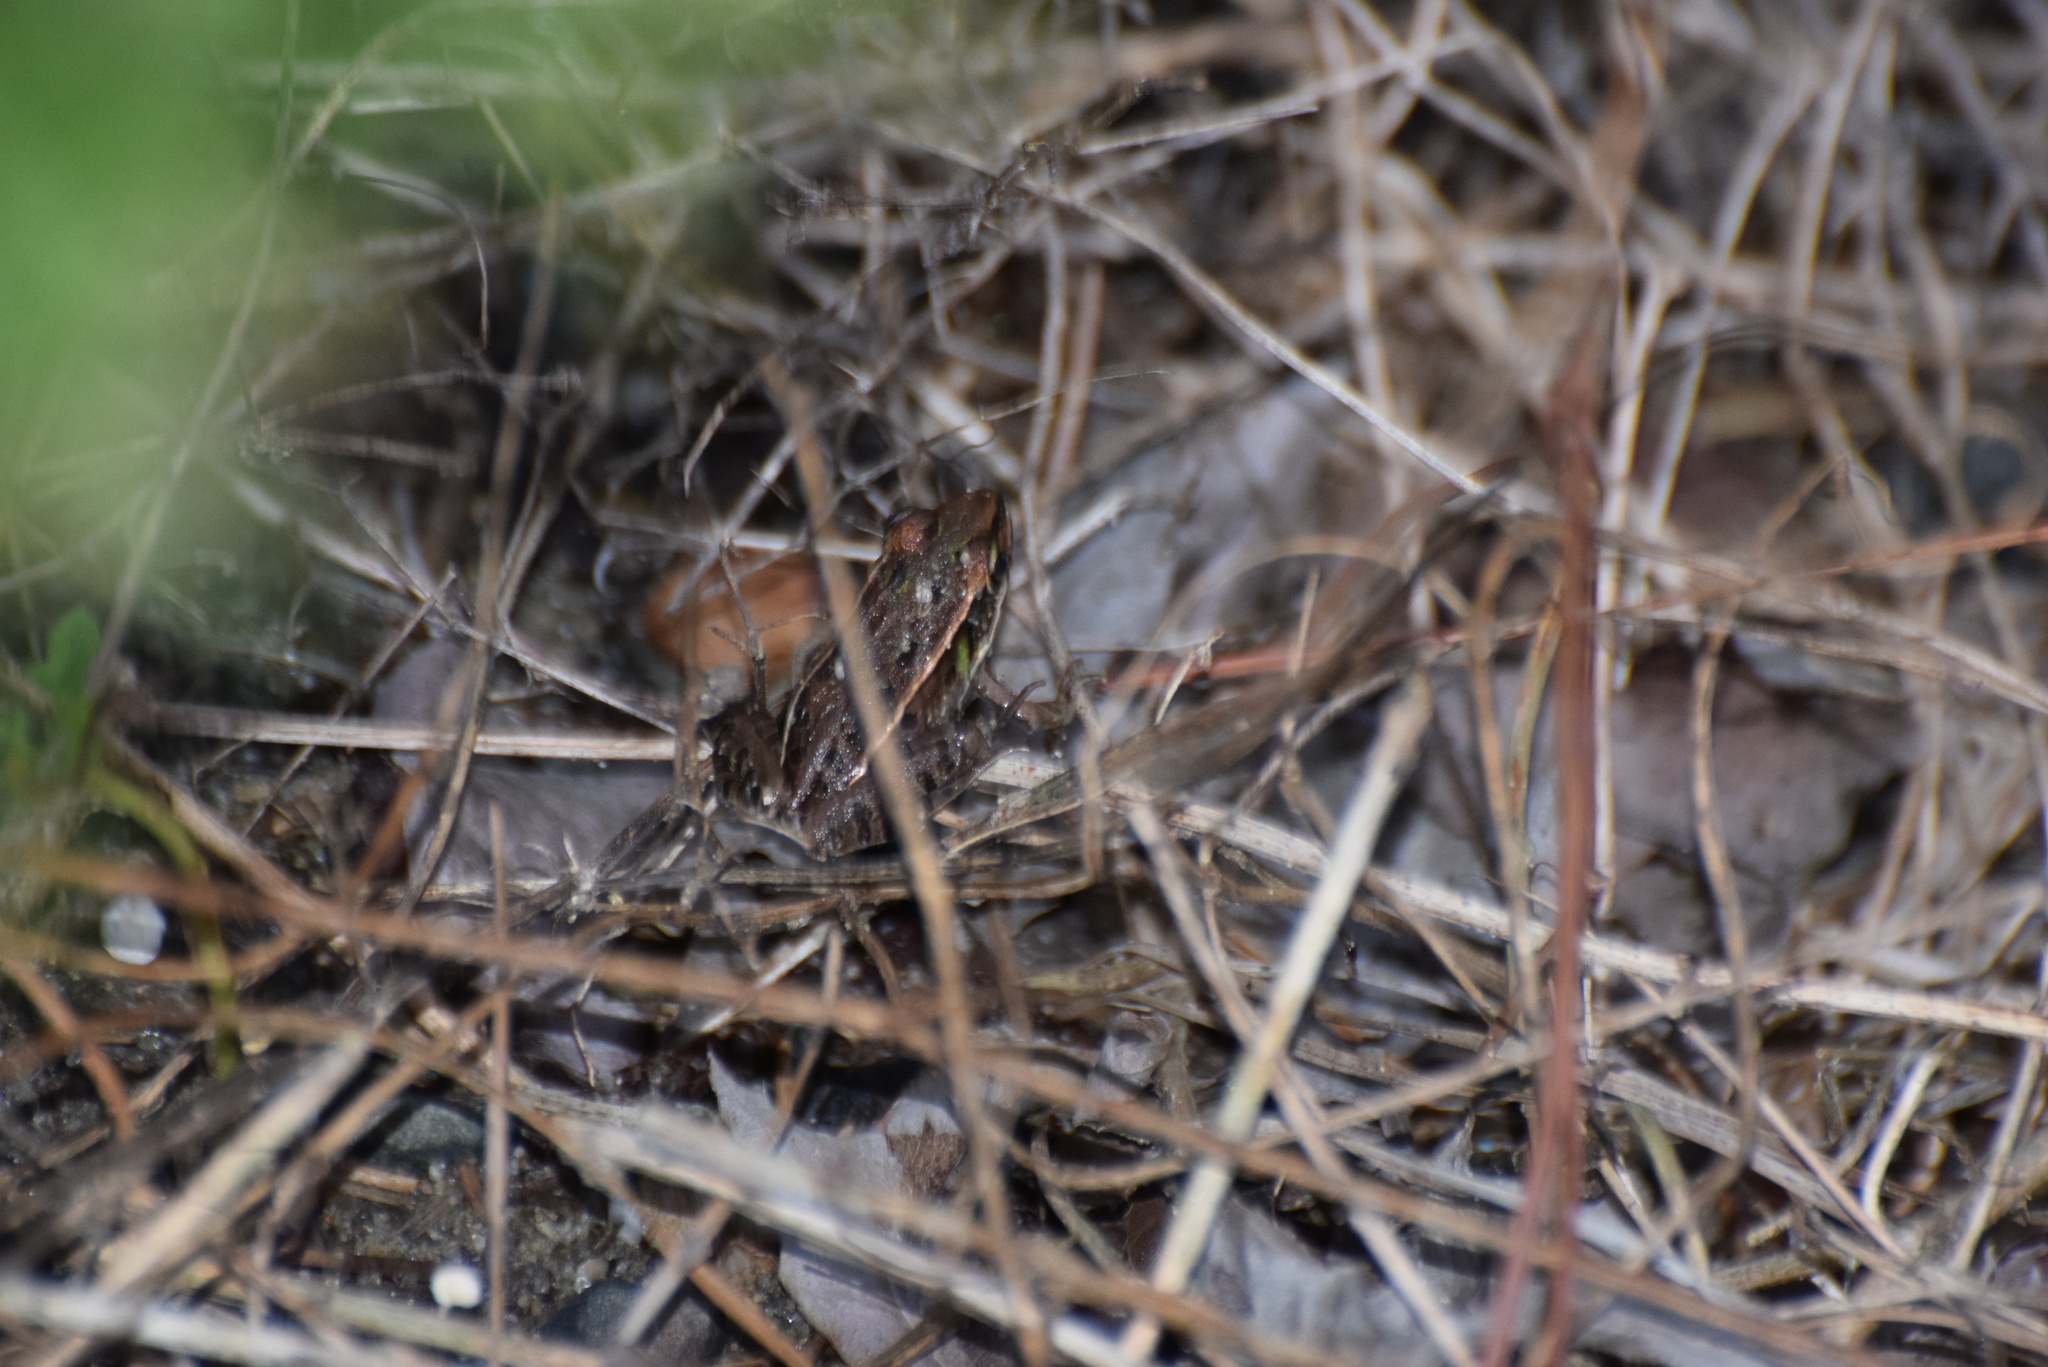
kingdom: Animalia
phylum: Chordata
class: Amphibia
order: Anura
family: Ranidae
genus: Lithobates
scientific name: Lithobates sphenocephalus
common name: Southern leopard frog
